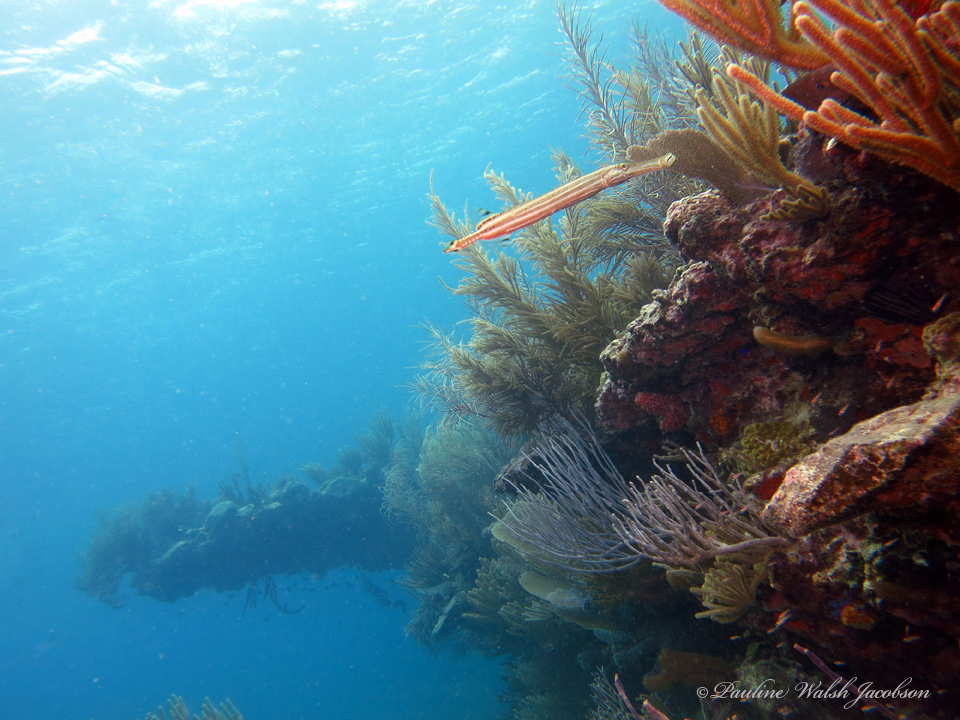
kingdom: Animalia
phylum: Chordata
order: Syngnathiformes
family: Aulostomidae
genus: Aulostomus
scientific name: Aulostomus maculatus
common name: West atlantic trumpetfish
